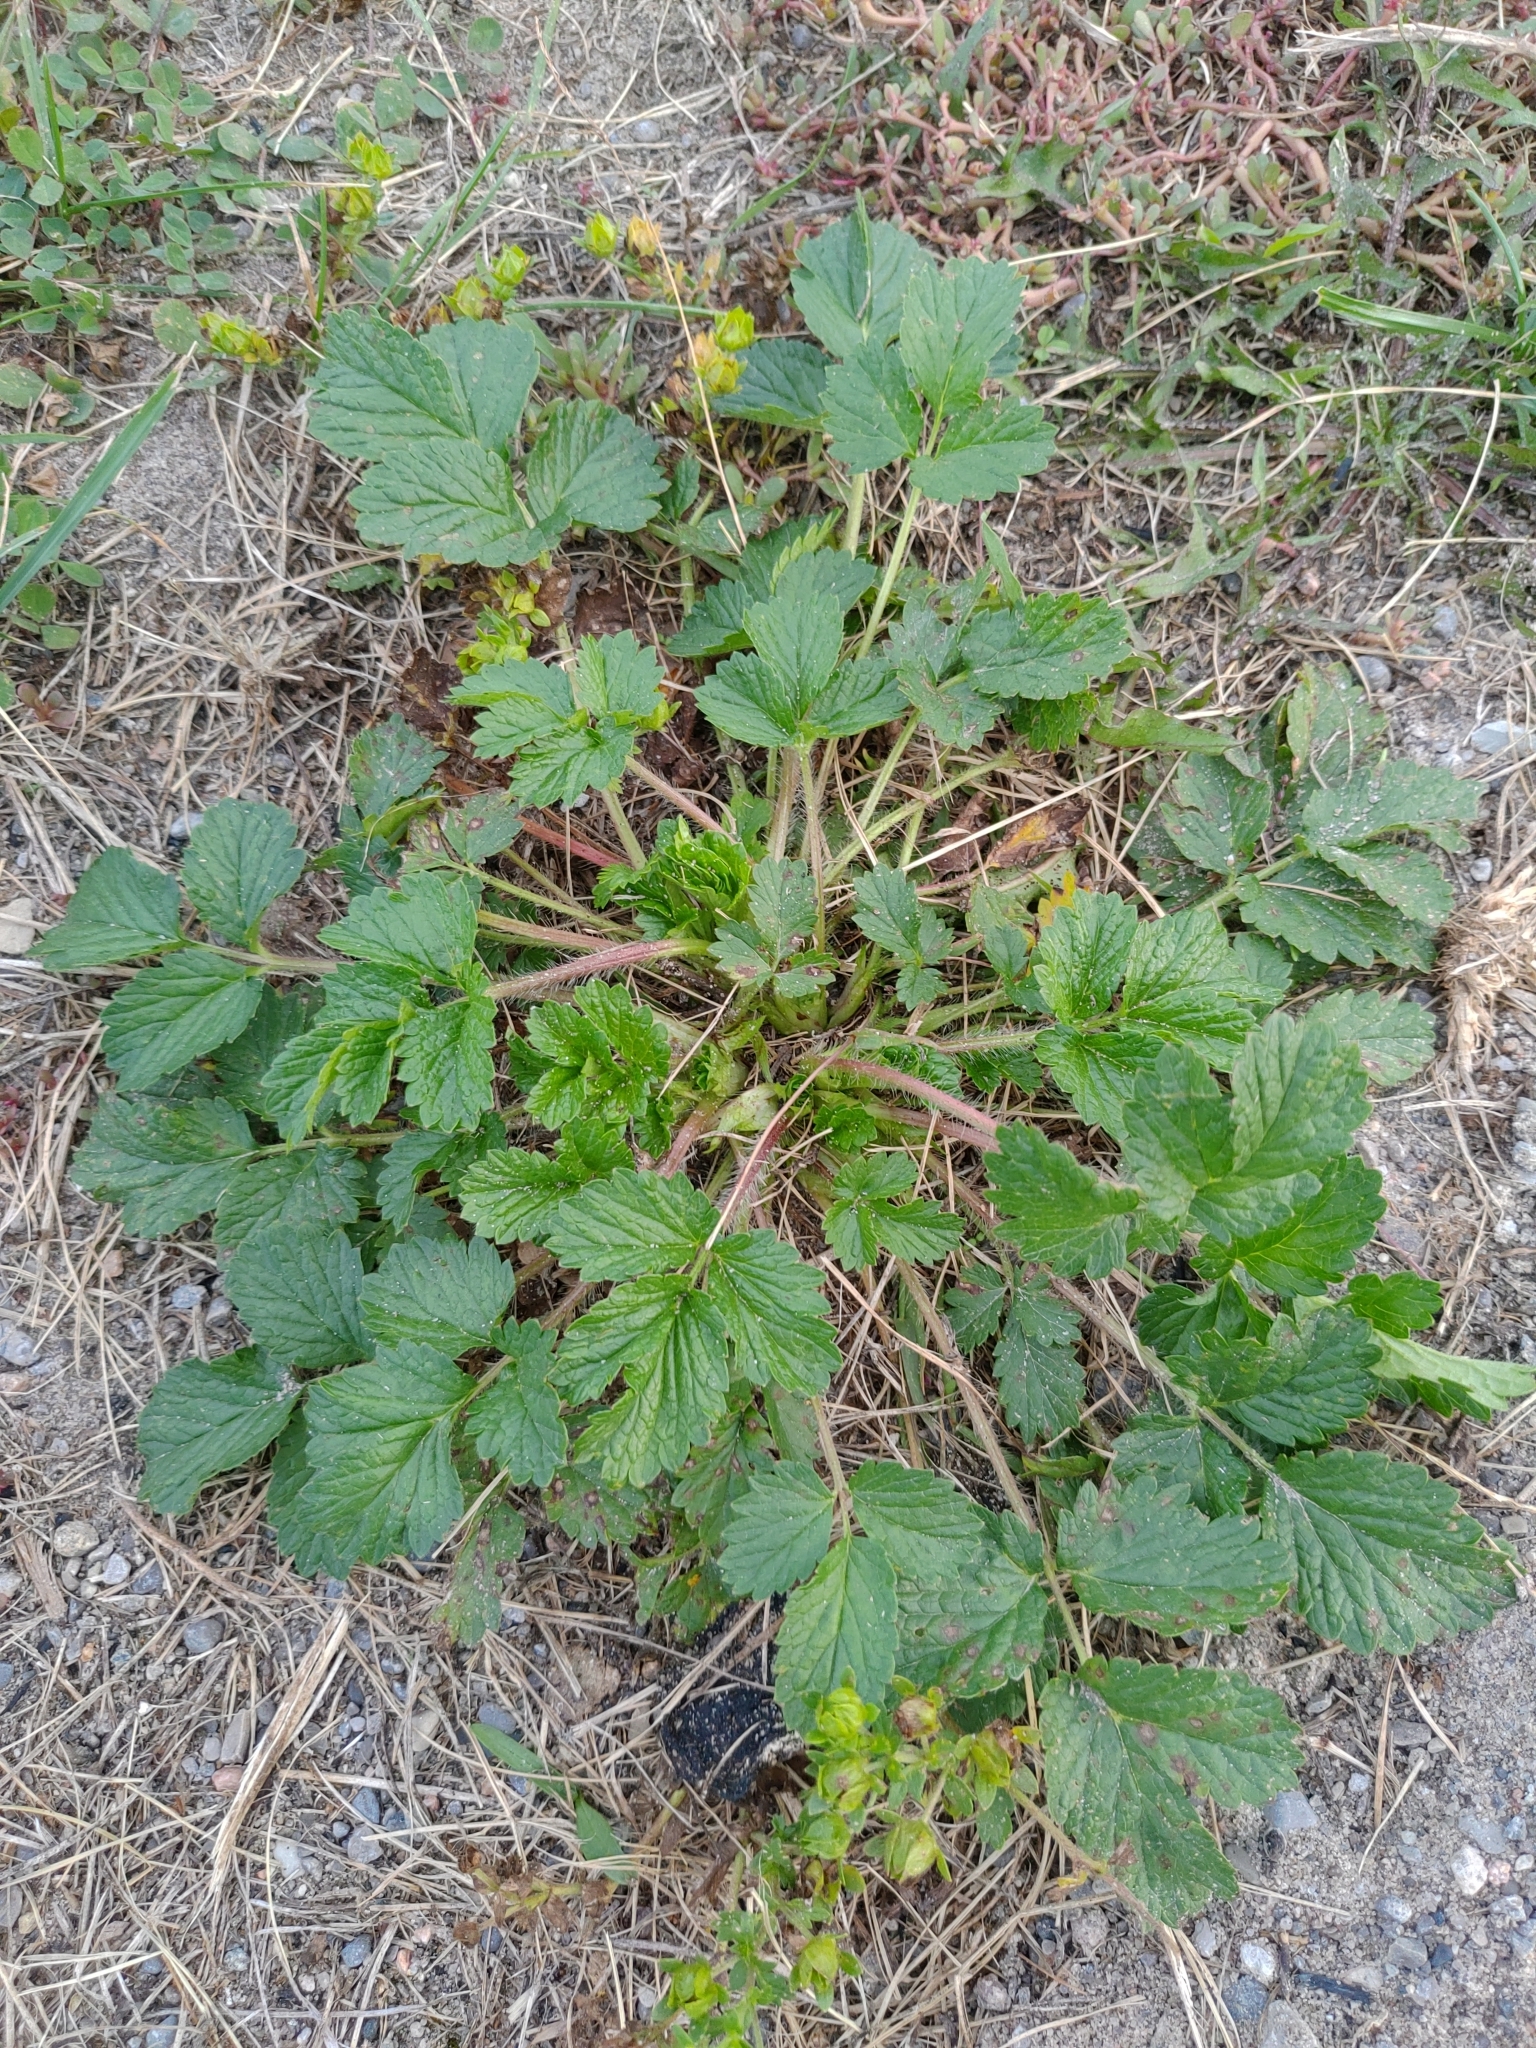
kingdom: Plantae
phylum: Tracheophyta
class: Magnoliopsida
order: Rosales
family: Rosaceae
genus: Potentilla
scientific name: Potentilla norvegica
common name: Ternate-leaved cinquefoil
